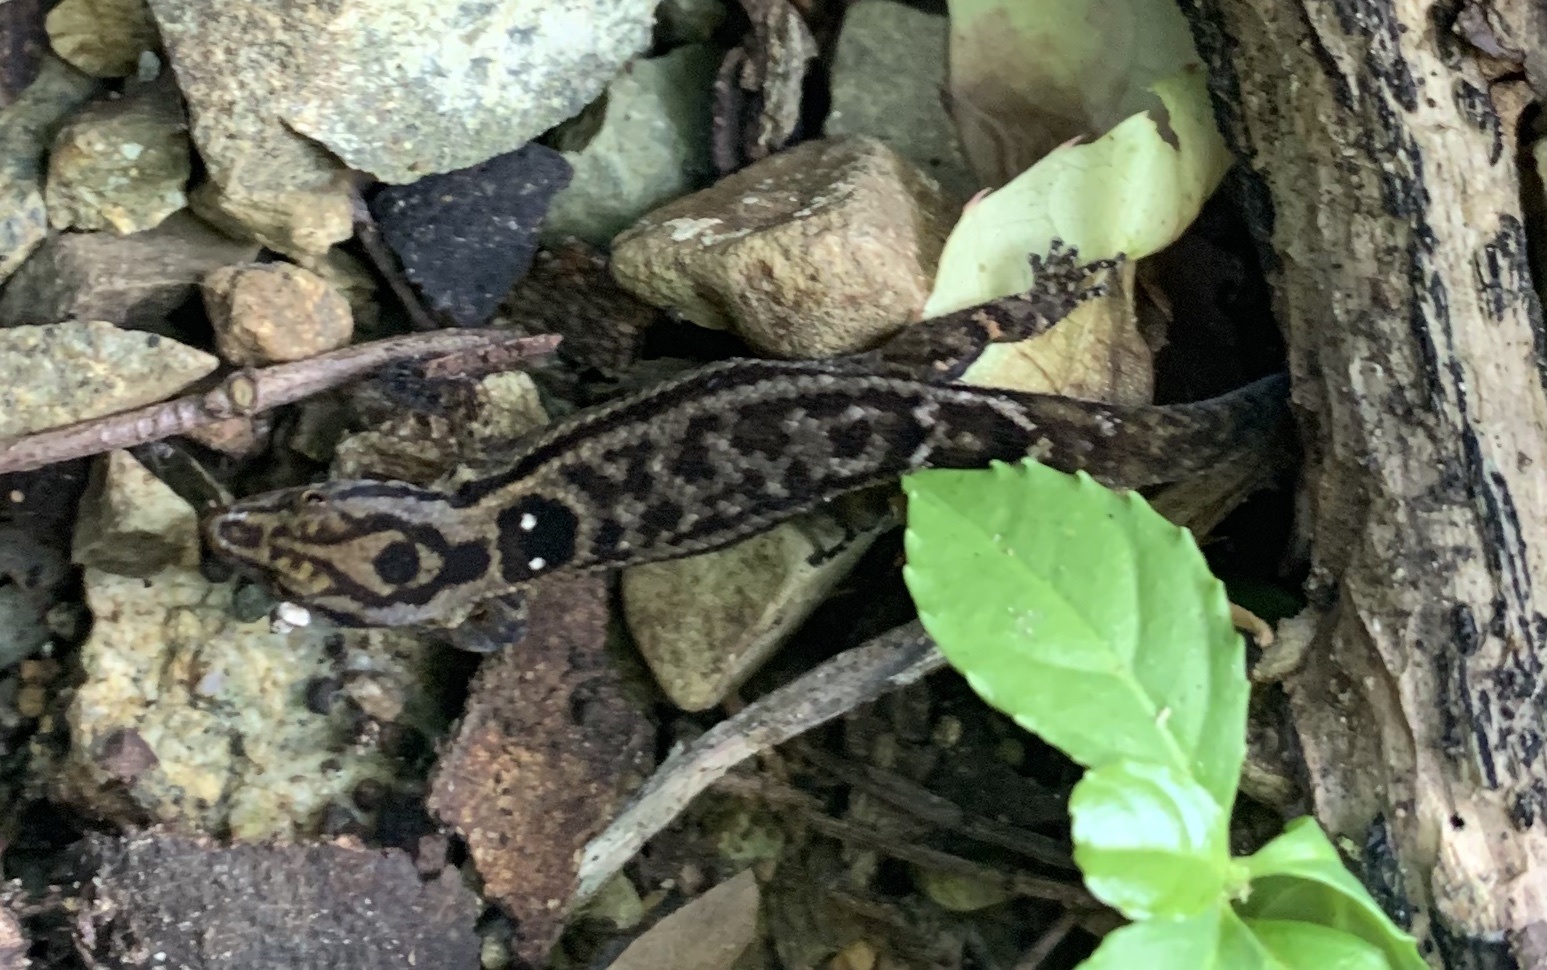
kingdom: Animalia
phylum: Chordata
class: Squamata
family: Sphaerodactylidae
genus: Sphaerodactylus
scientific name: Sphaerodactylus macrolepis
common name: Big-scaled least gecko
